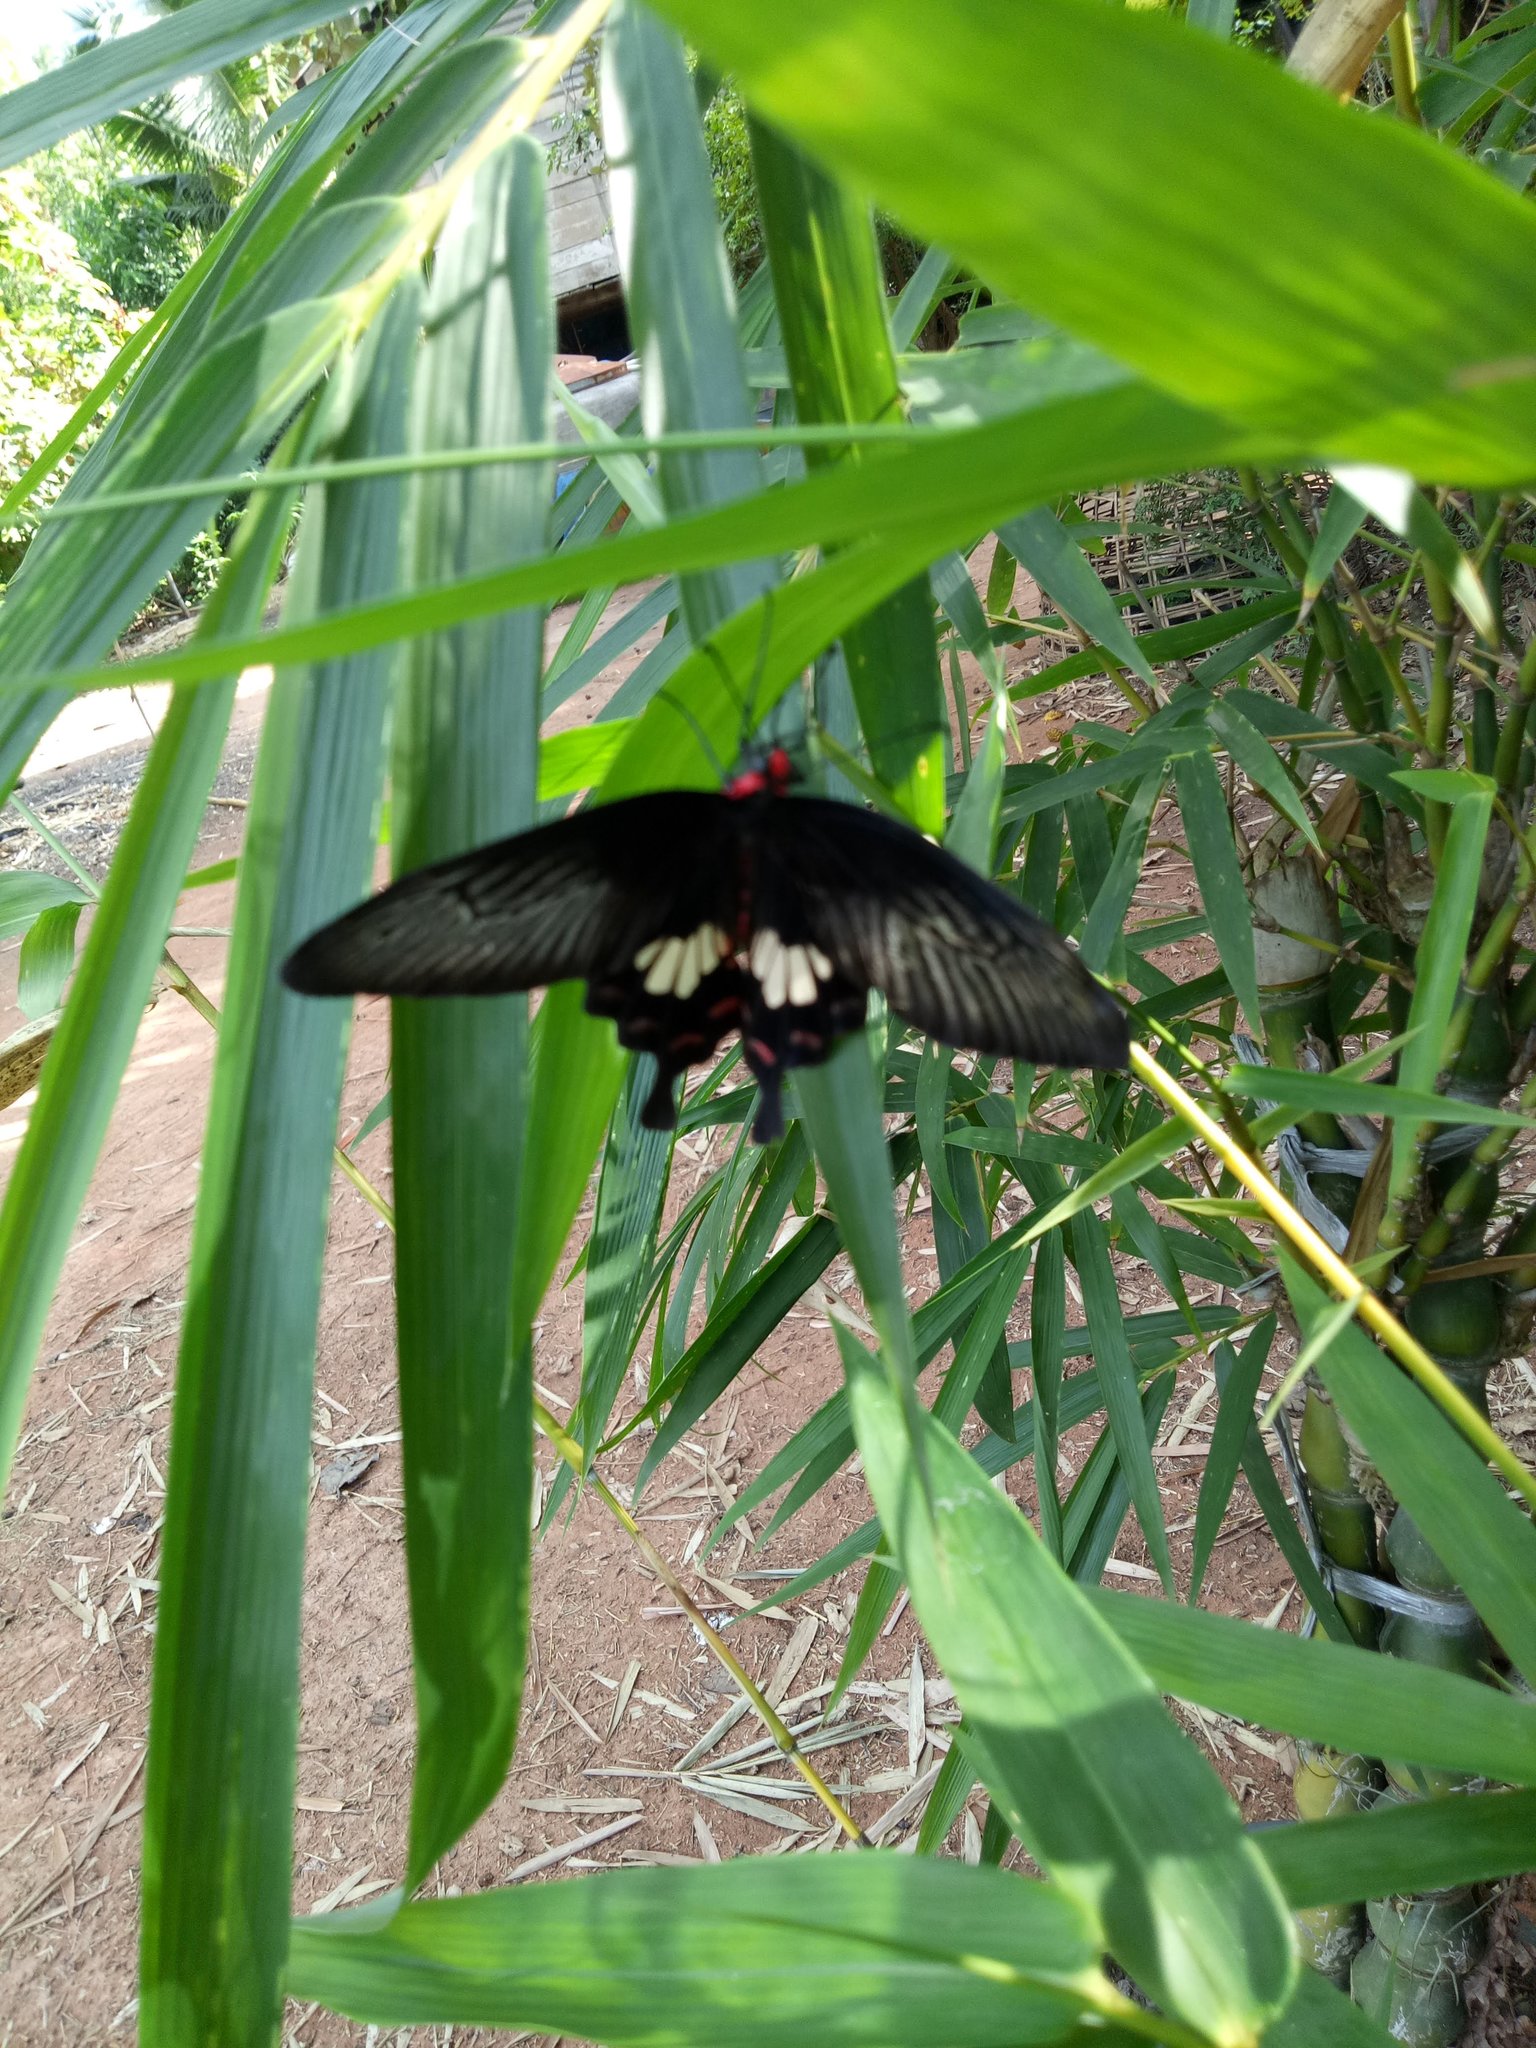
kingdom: Animalia
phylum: Arthropoda
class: Insecta
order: Lepidoptera
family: Papilionidae
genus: Pachliopta
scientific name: Pachliopta aristolochiae
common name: Common rose
